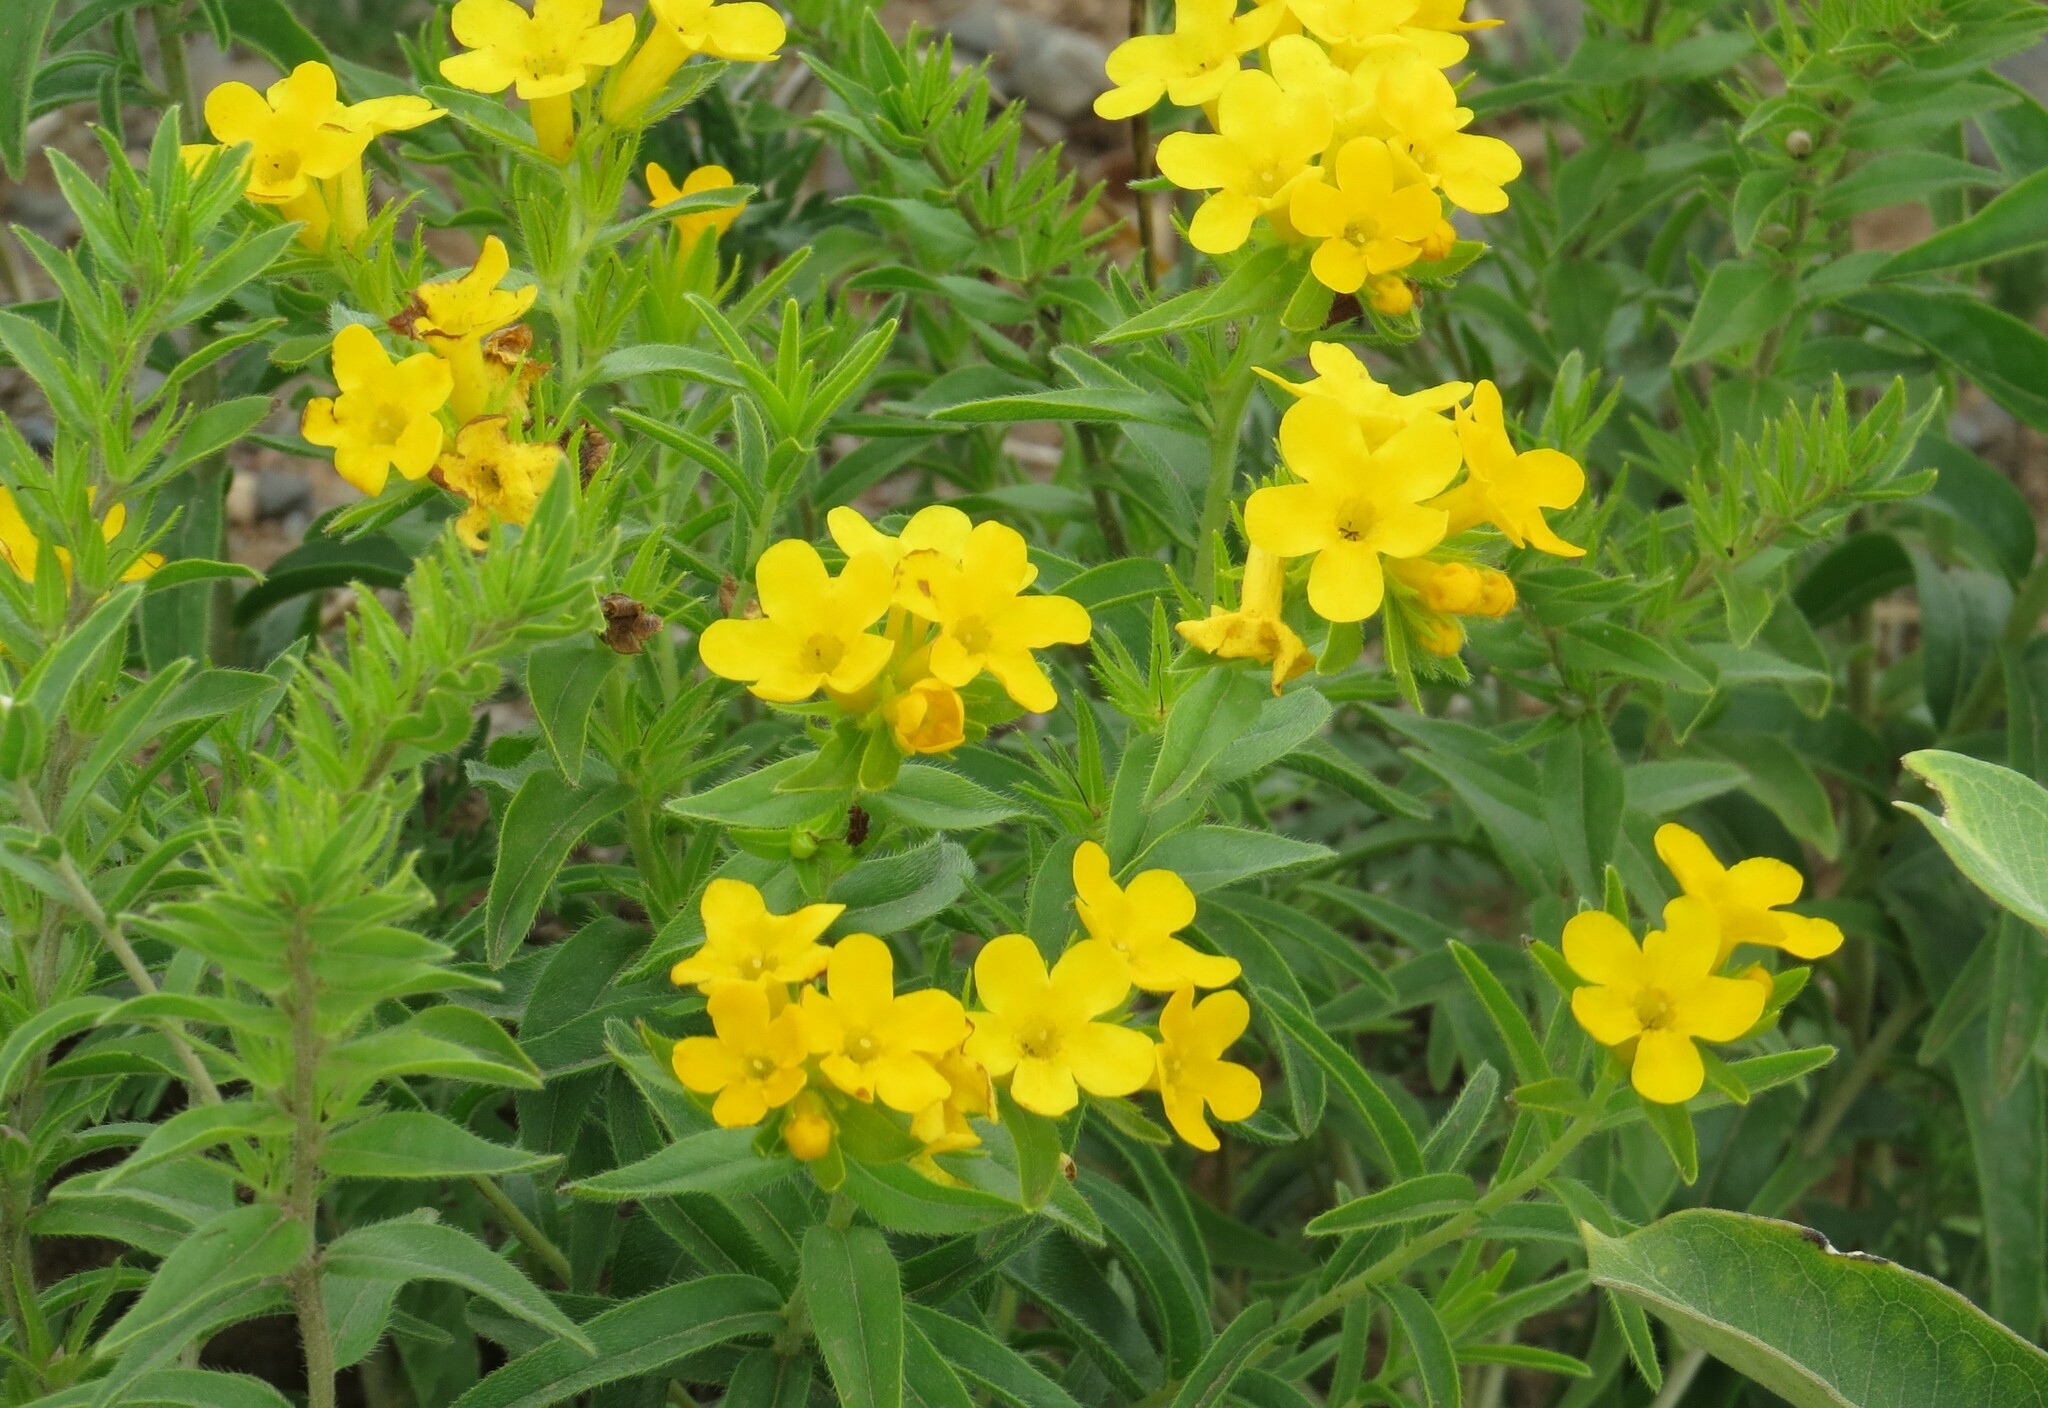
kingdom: Plantae
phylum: Tracheophyta
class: Magnoliopsida
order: Boraginales
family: Boraginaceae
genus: Lithospermum
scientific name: Lithospermum caroliniense
